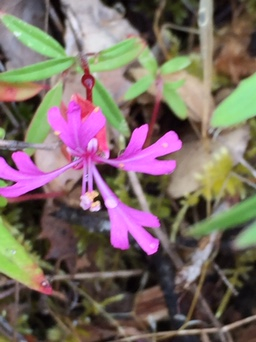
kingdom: Plantae
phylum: Tracheophyta
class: Magnoliopsida
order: Myrtales
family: Onagraceae
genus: Clarkia
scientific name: Clarkia concinna
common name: Red-ribbons
